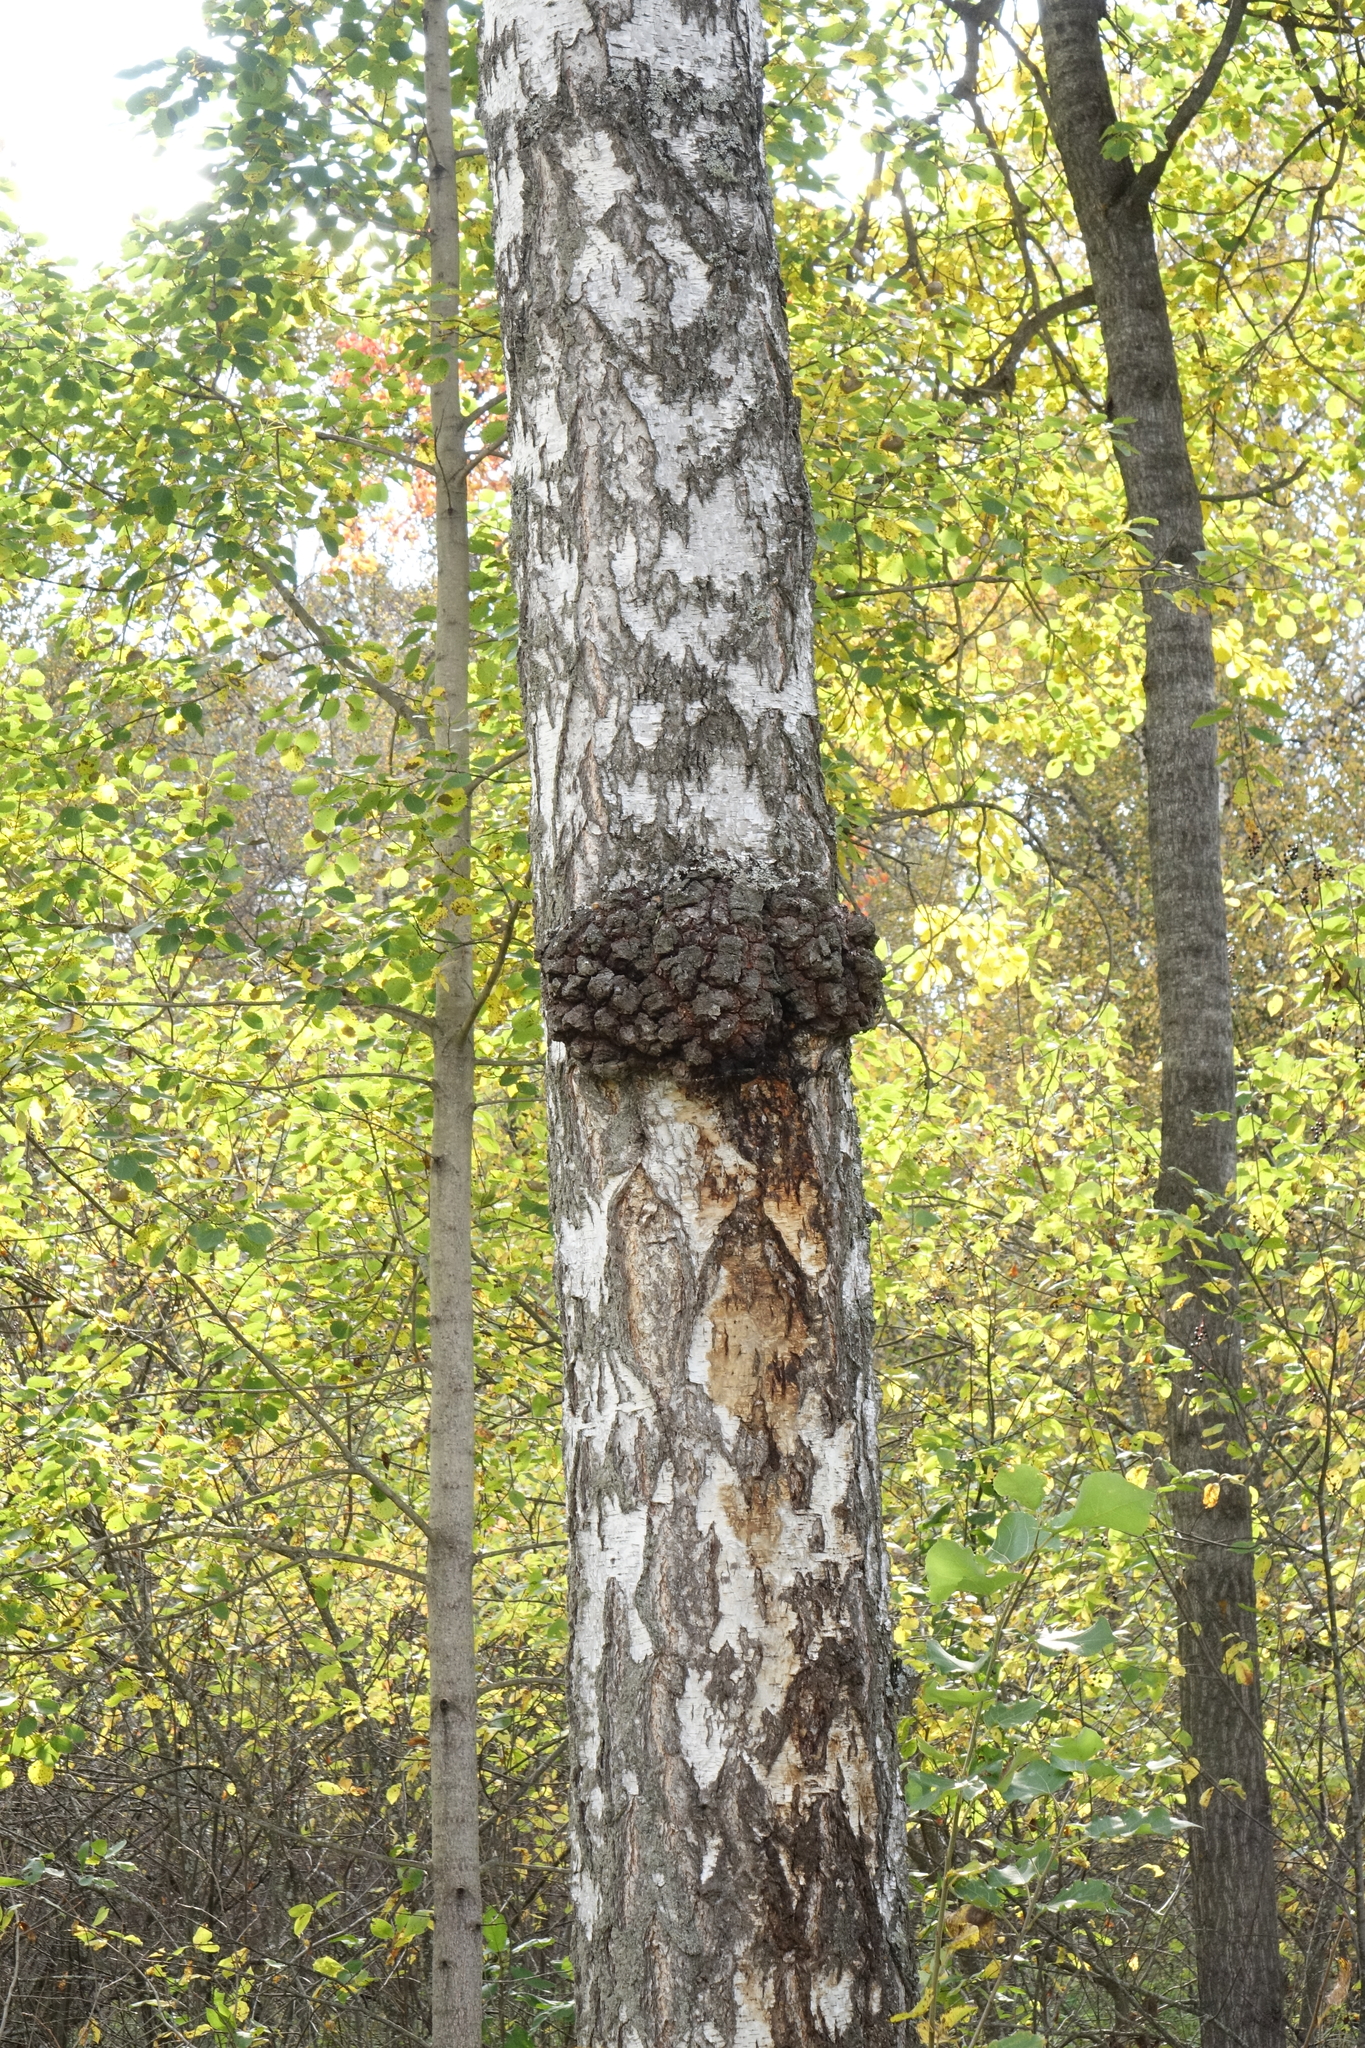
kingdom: Fungi
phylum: Basidiomycota
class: Agaricomycetes
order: Hymenochaetales
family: Hymenochaetaceae
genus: Inonotus
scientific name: Inonotus obliquus
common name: Chaga
